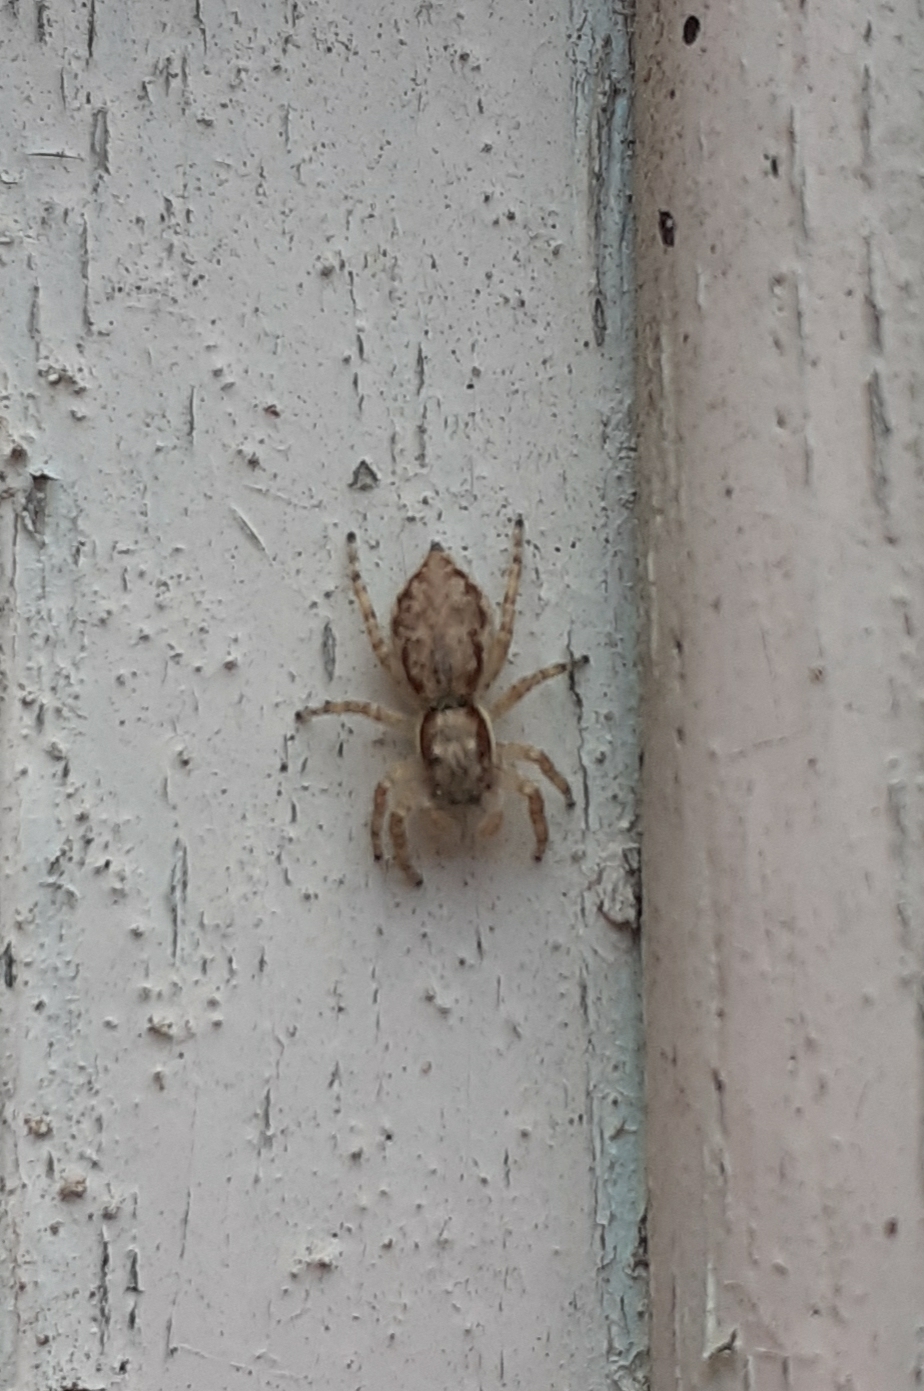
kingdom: Animalia
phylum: Arthropoda
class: Arachnida
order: Araneae
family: Salticidae
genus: Menemerus
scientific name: Menemerus bivittatus
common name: Gray wall jumper
